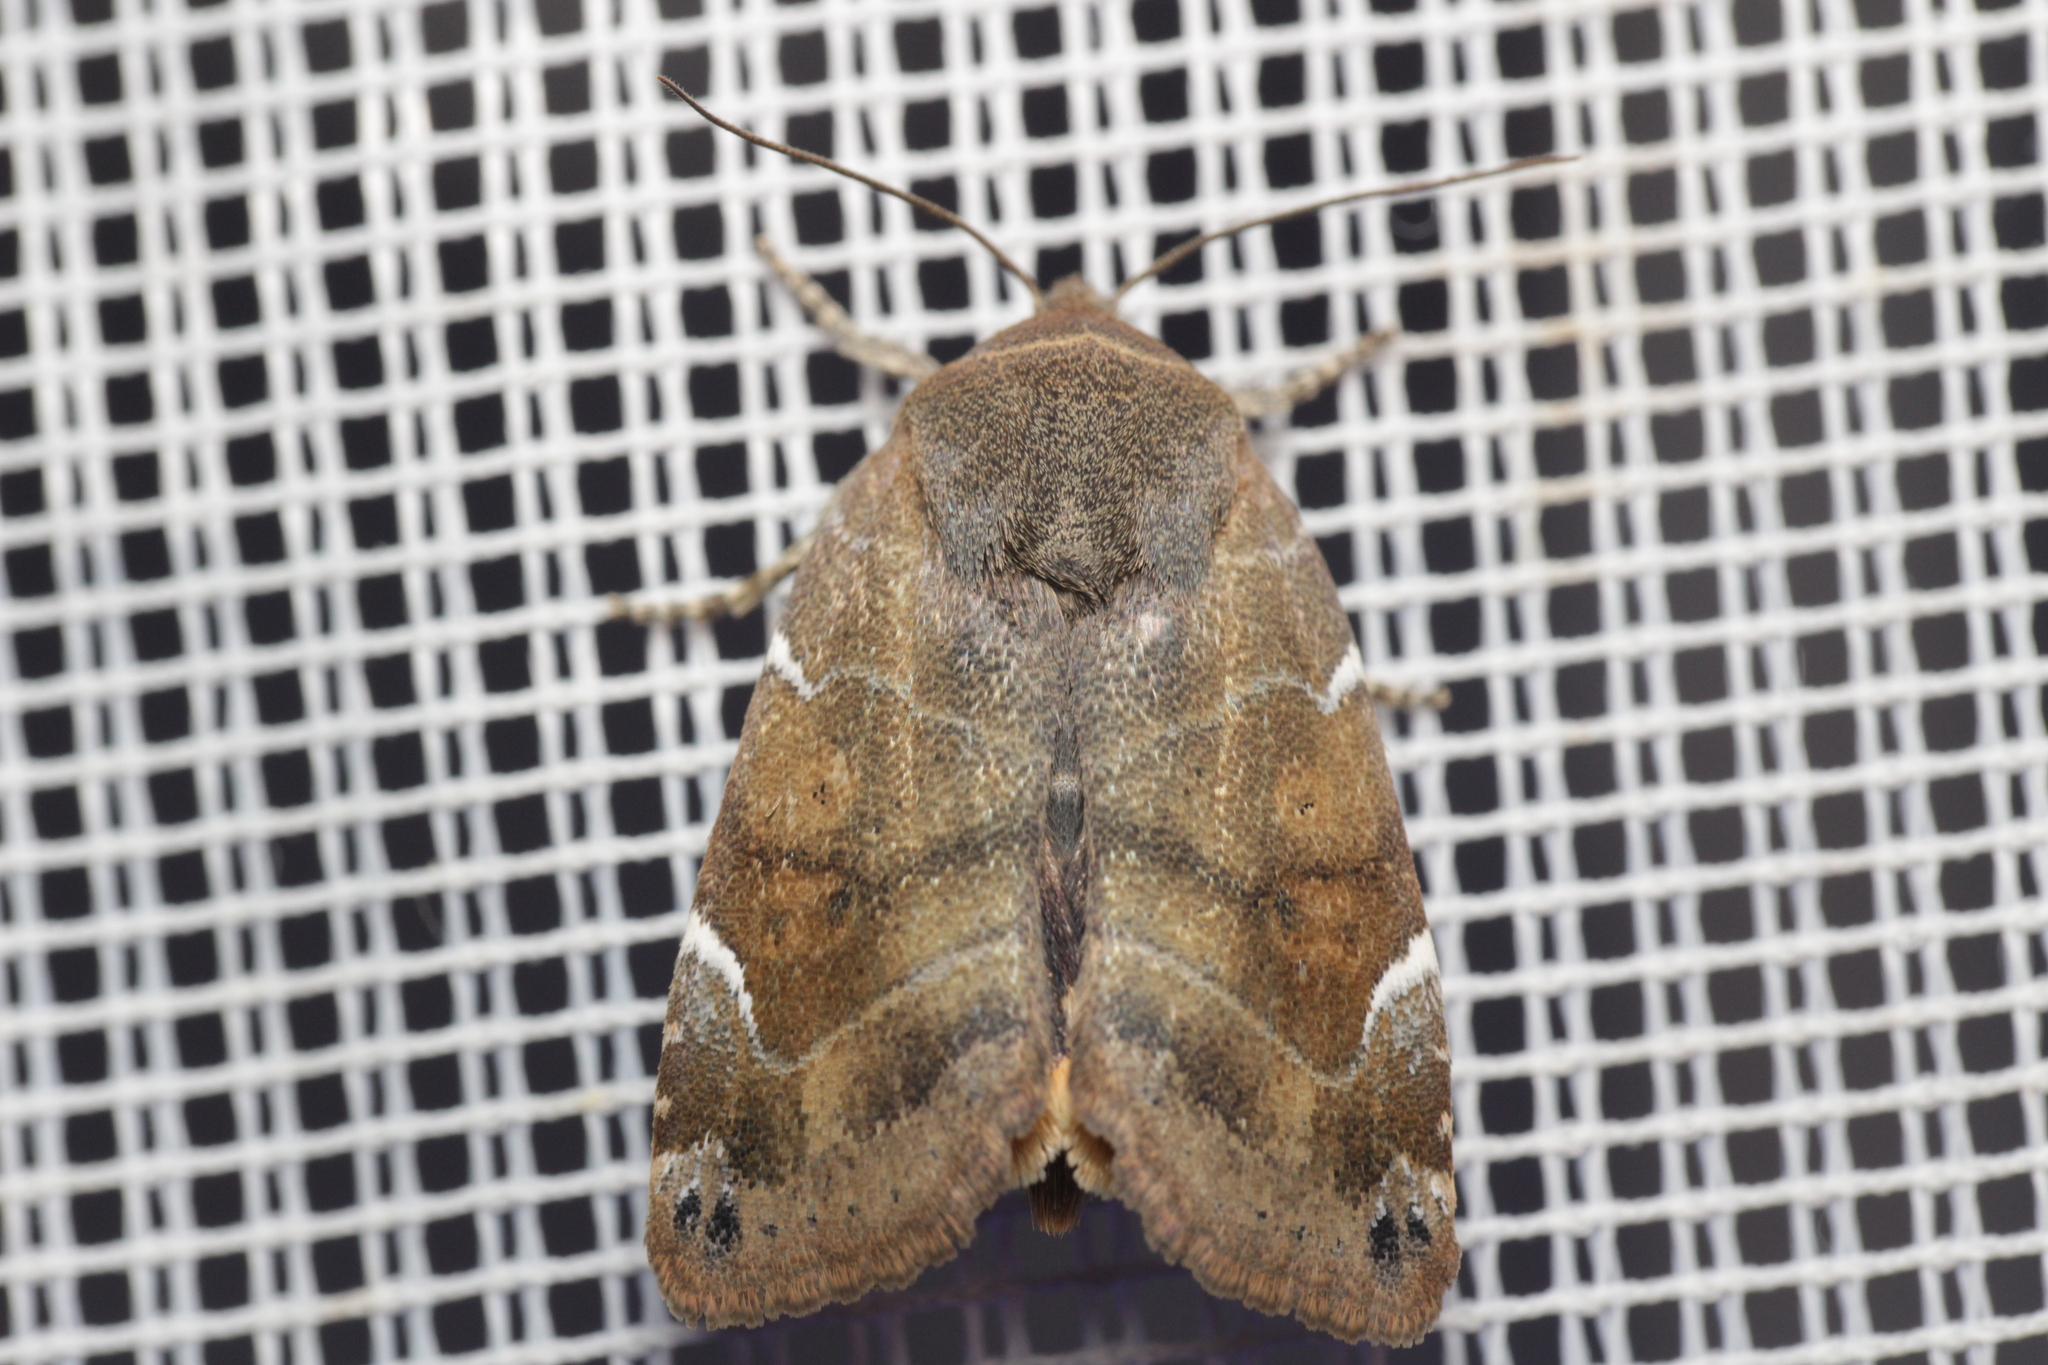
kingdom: Animalia
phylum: Arthropoda
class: Insecta
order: Lepidoptera
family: Noctuidae
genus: Cosmia
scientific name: Cosmia affinis
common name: Lesser-spotted pinion
